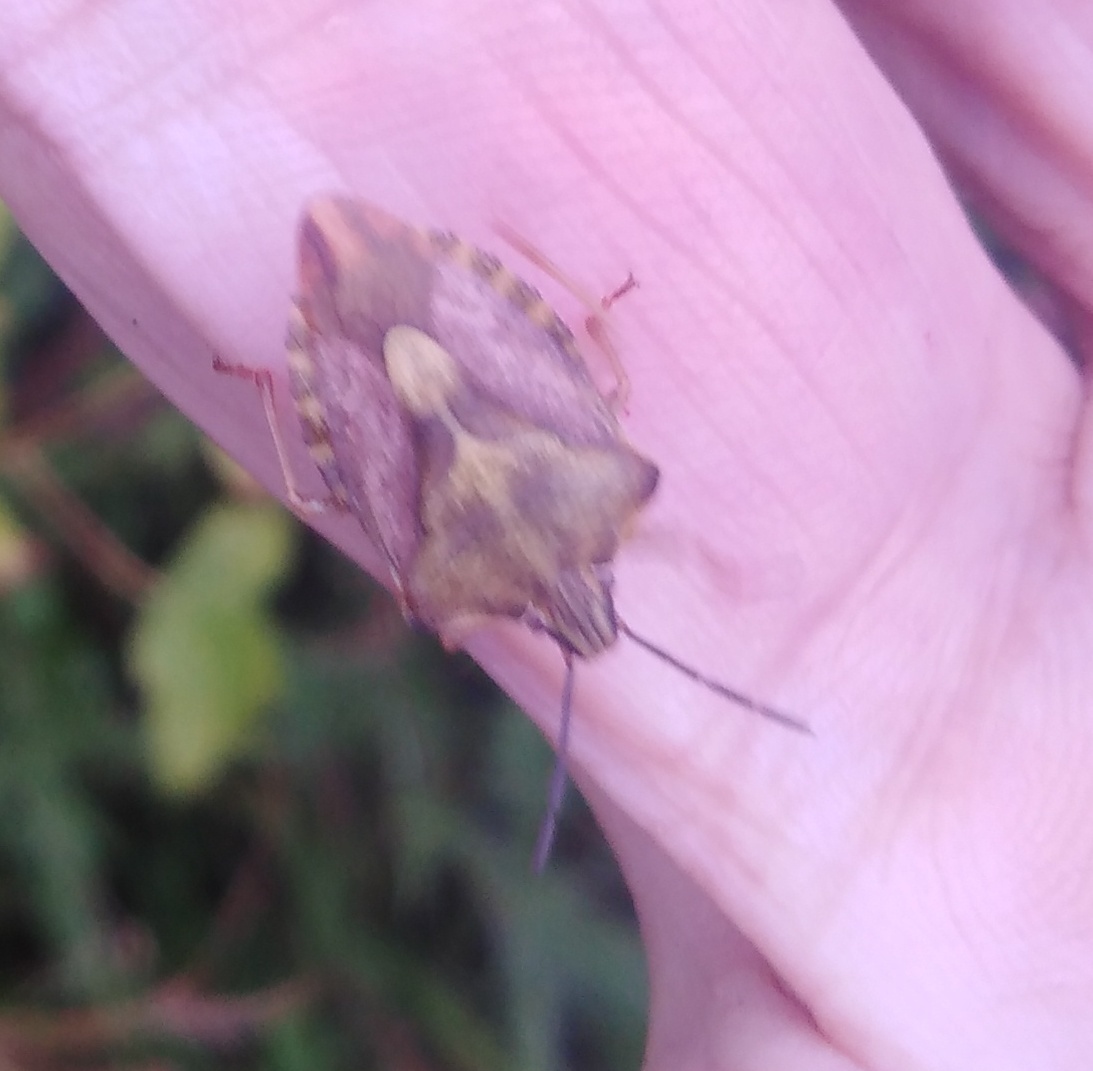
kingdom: Animalia
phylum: Arthropoda
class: Insecta
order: Hemiptera
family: Pentatomidae
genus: Carpocoris
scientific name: Carpocoris purpureipennis
